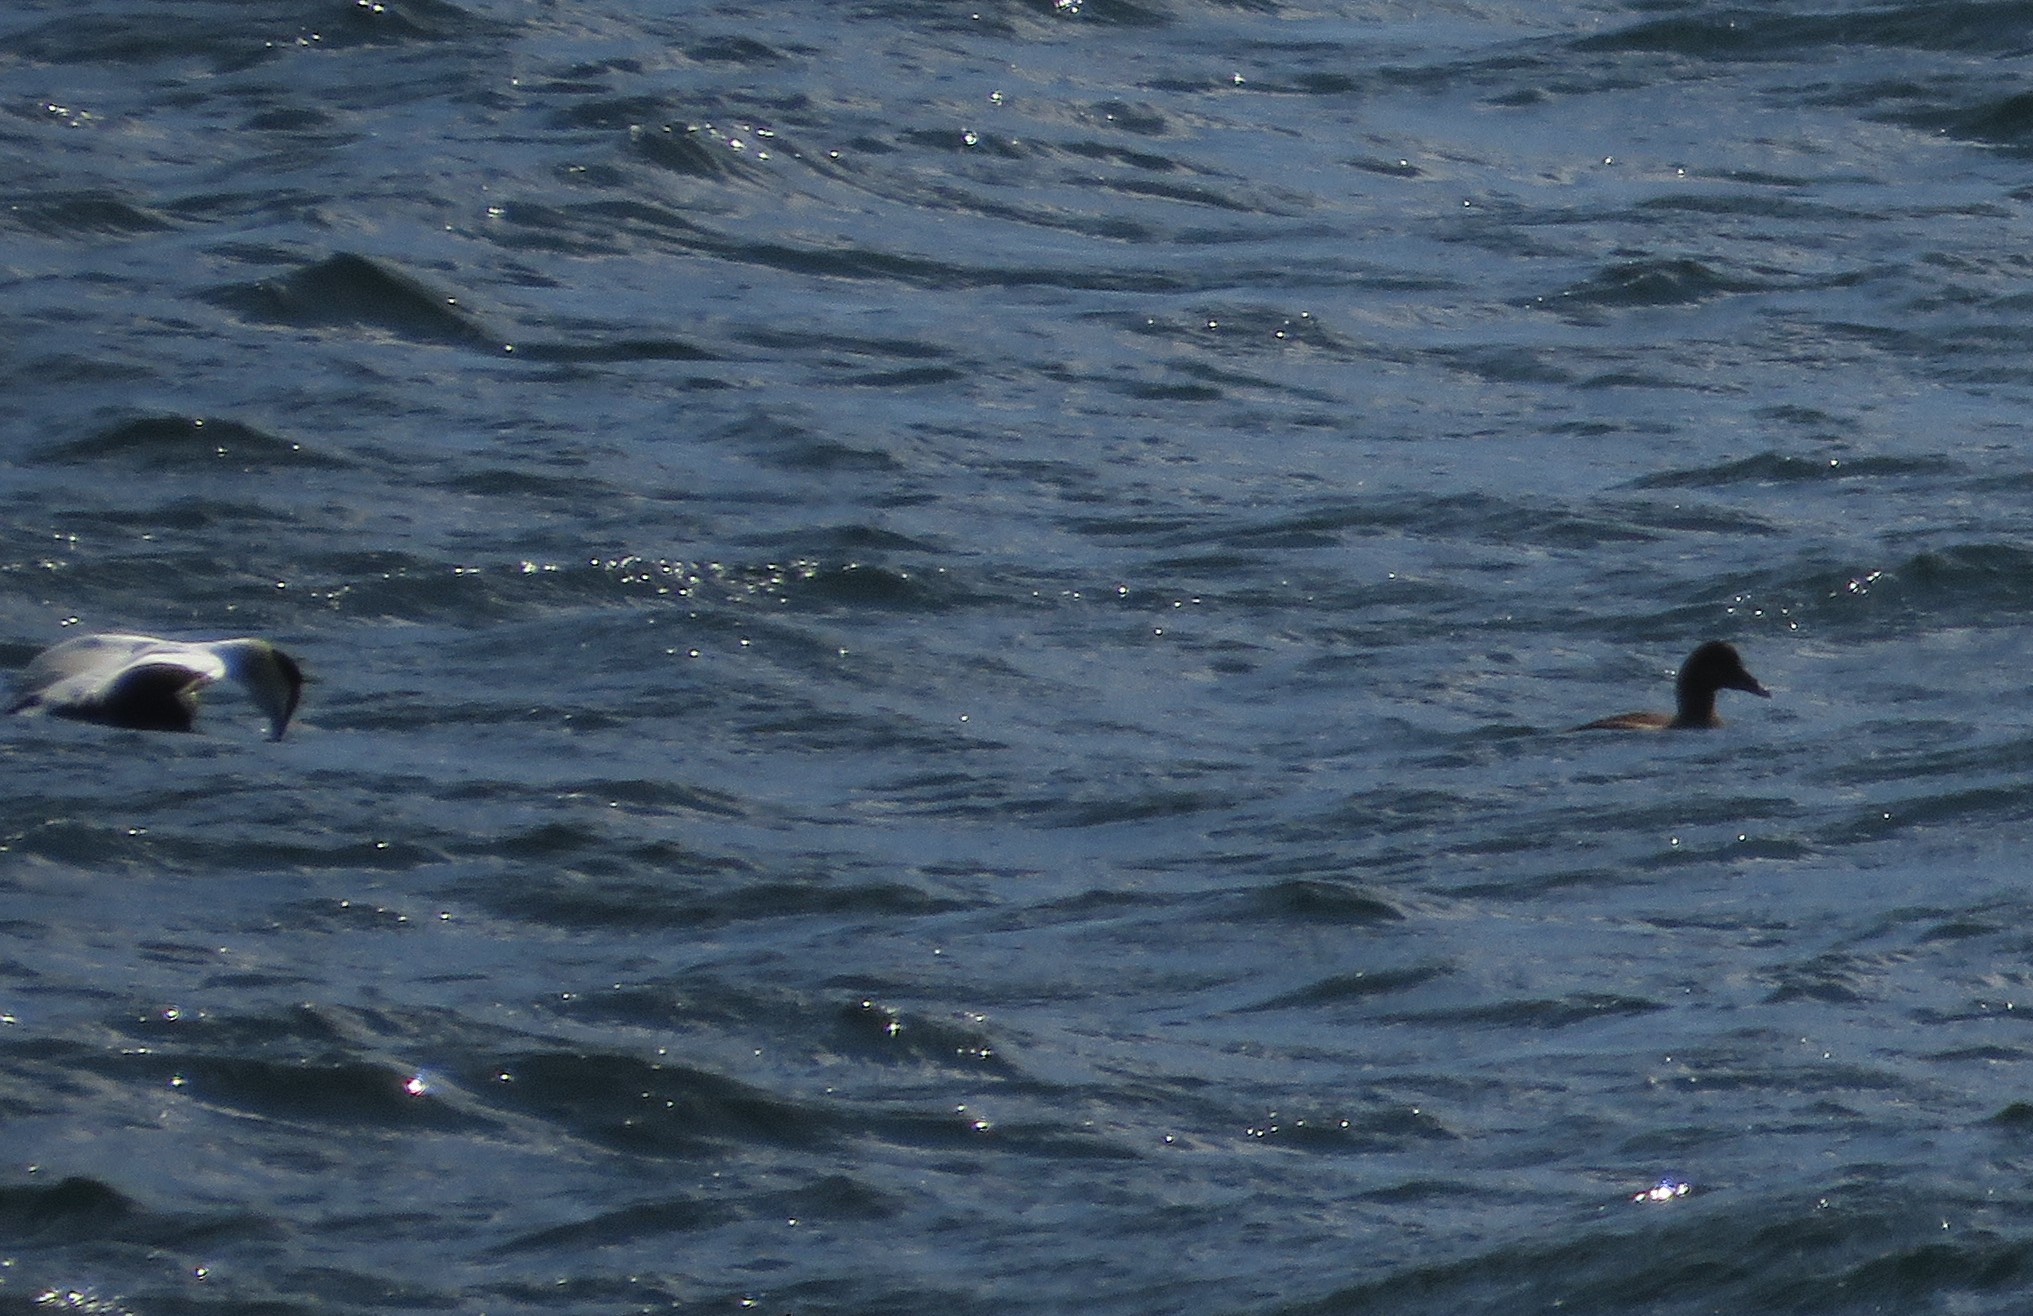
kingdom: Animalia
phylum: Chordata
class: Aves
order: Anseriformes
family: Anatidae
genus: Somateria
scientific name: Somateria mollissima
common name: Common eider
